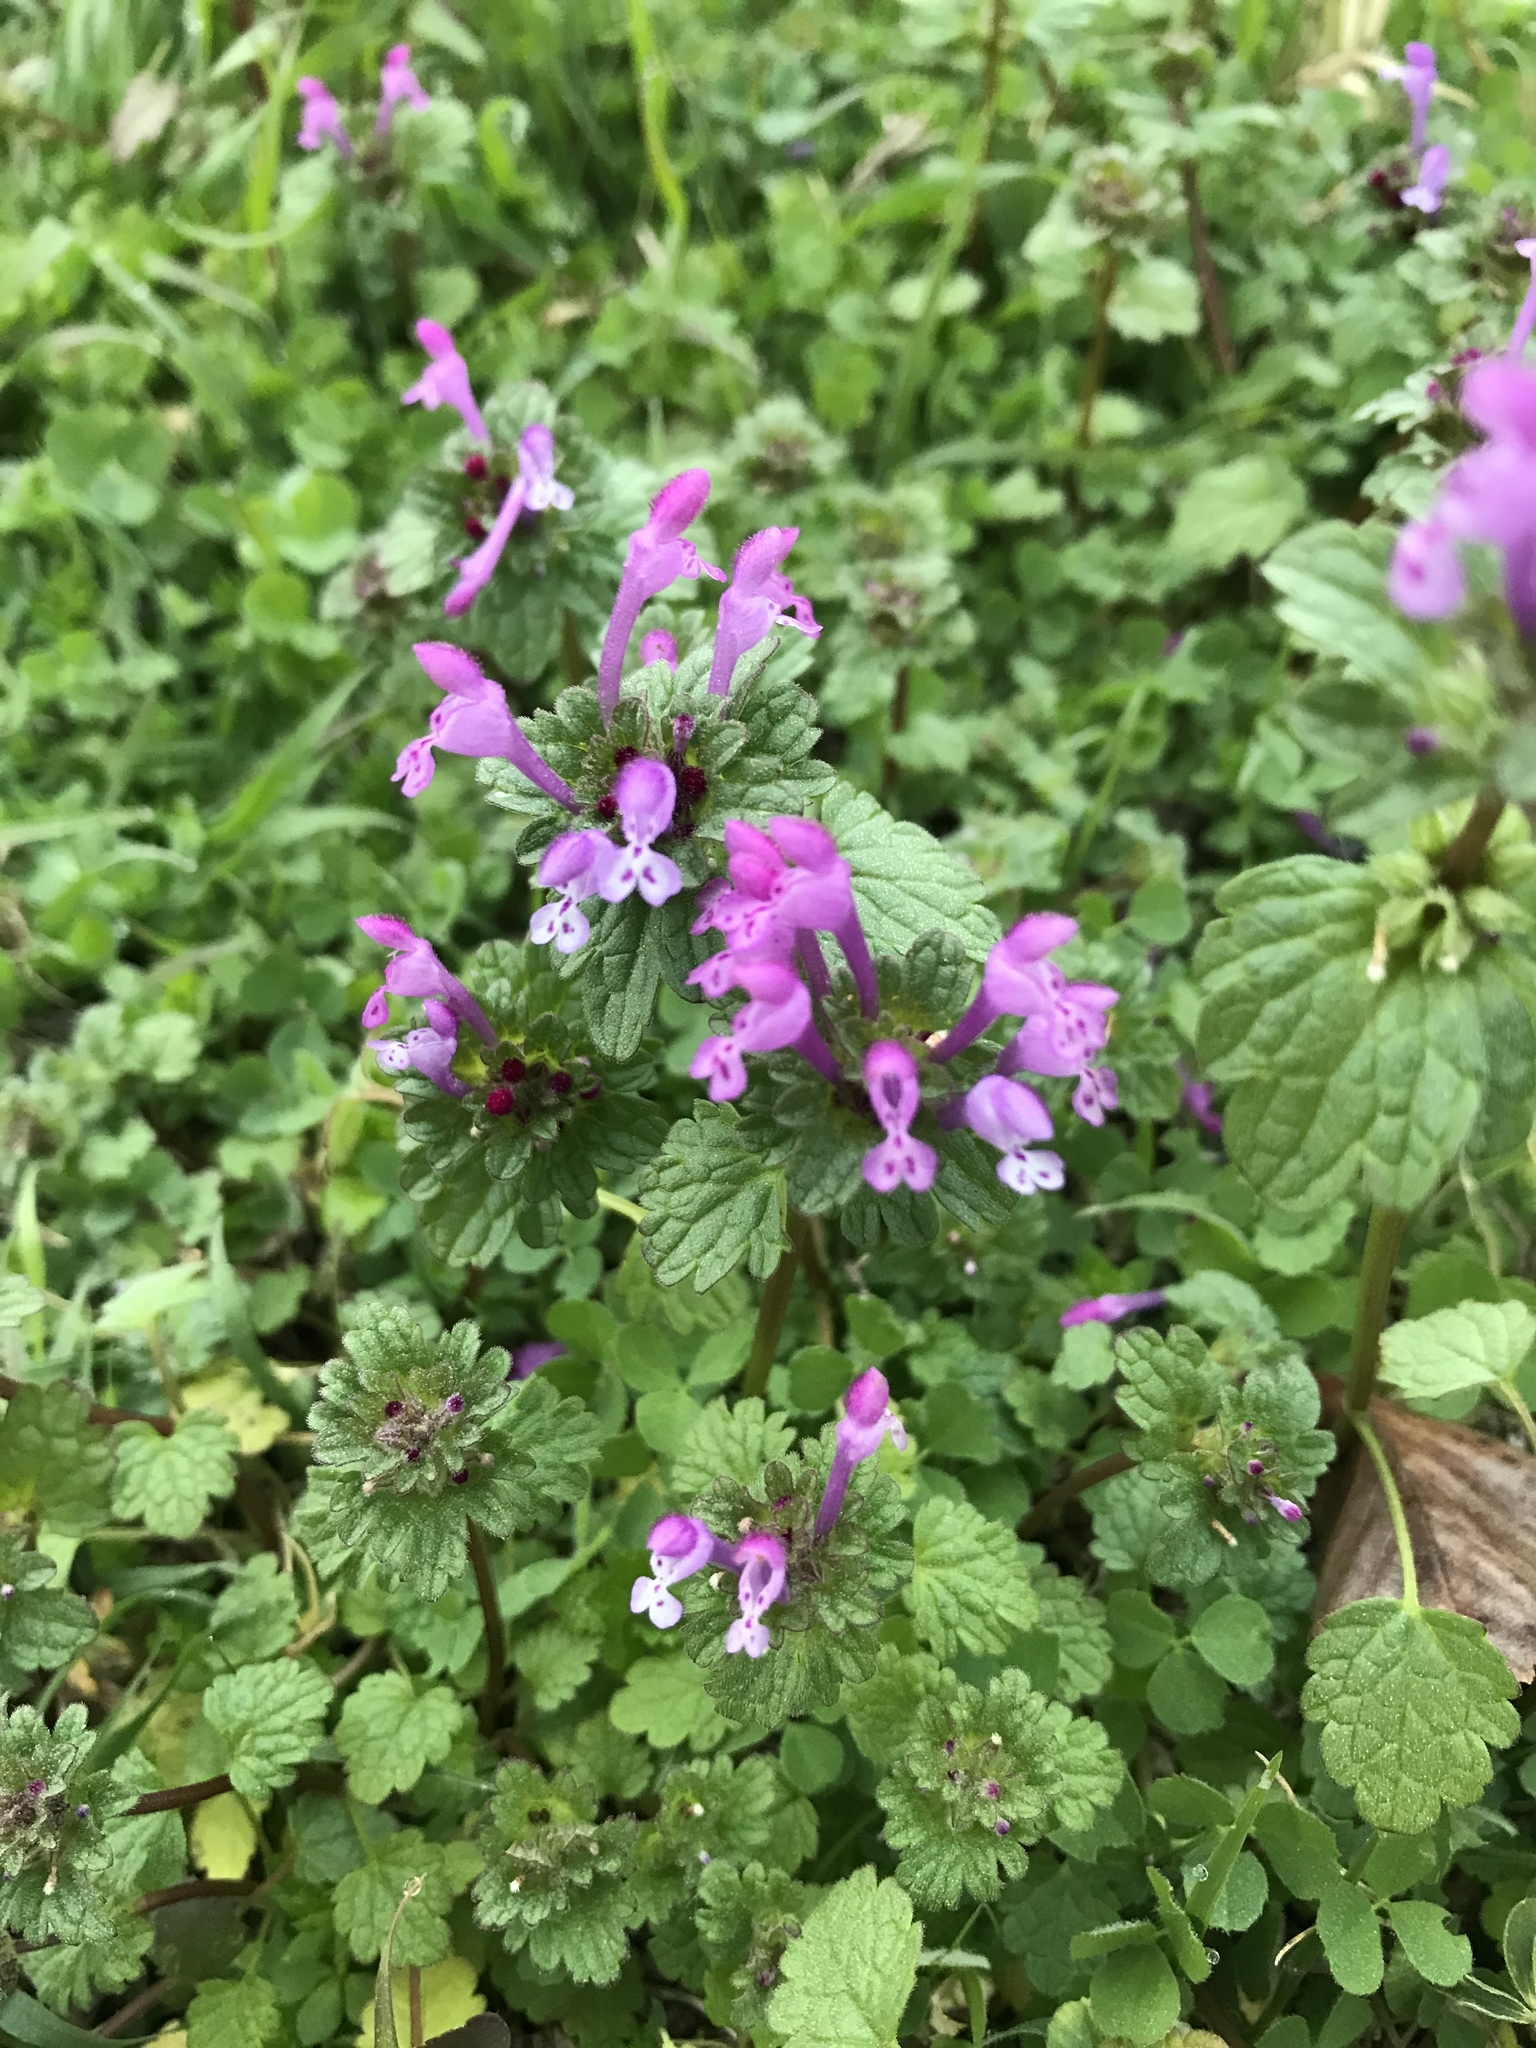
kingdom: Plantae
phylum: Tracheophyta
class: Magnoliopsida
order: Lamiales
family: Lamiaceae
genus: Lamium
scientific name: Lamium amplexicaule
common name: Henbit dead-nettle
